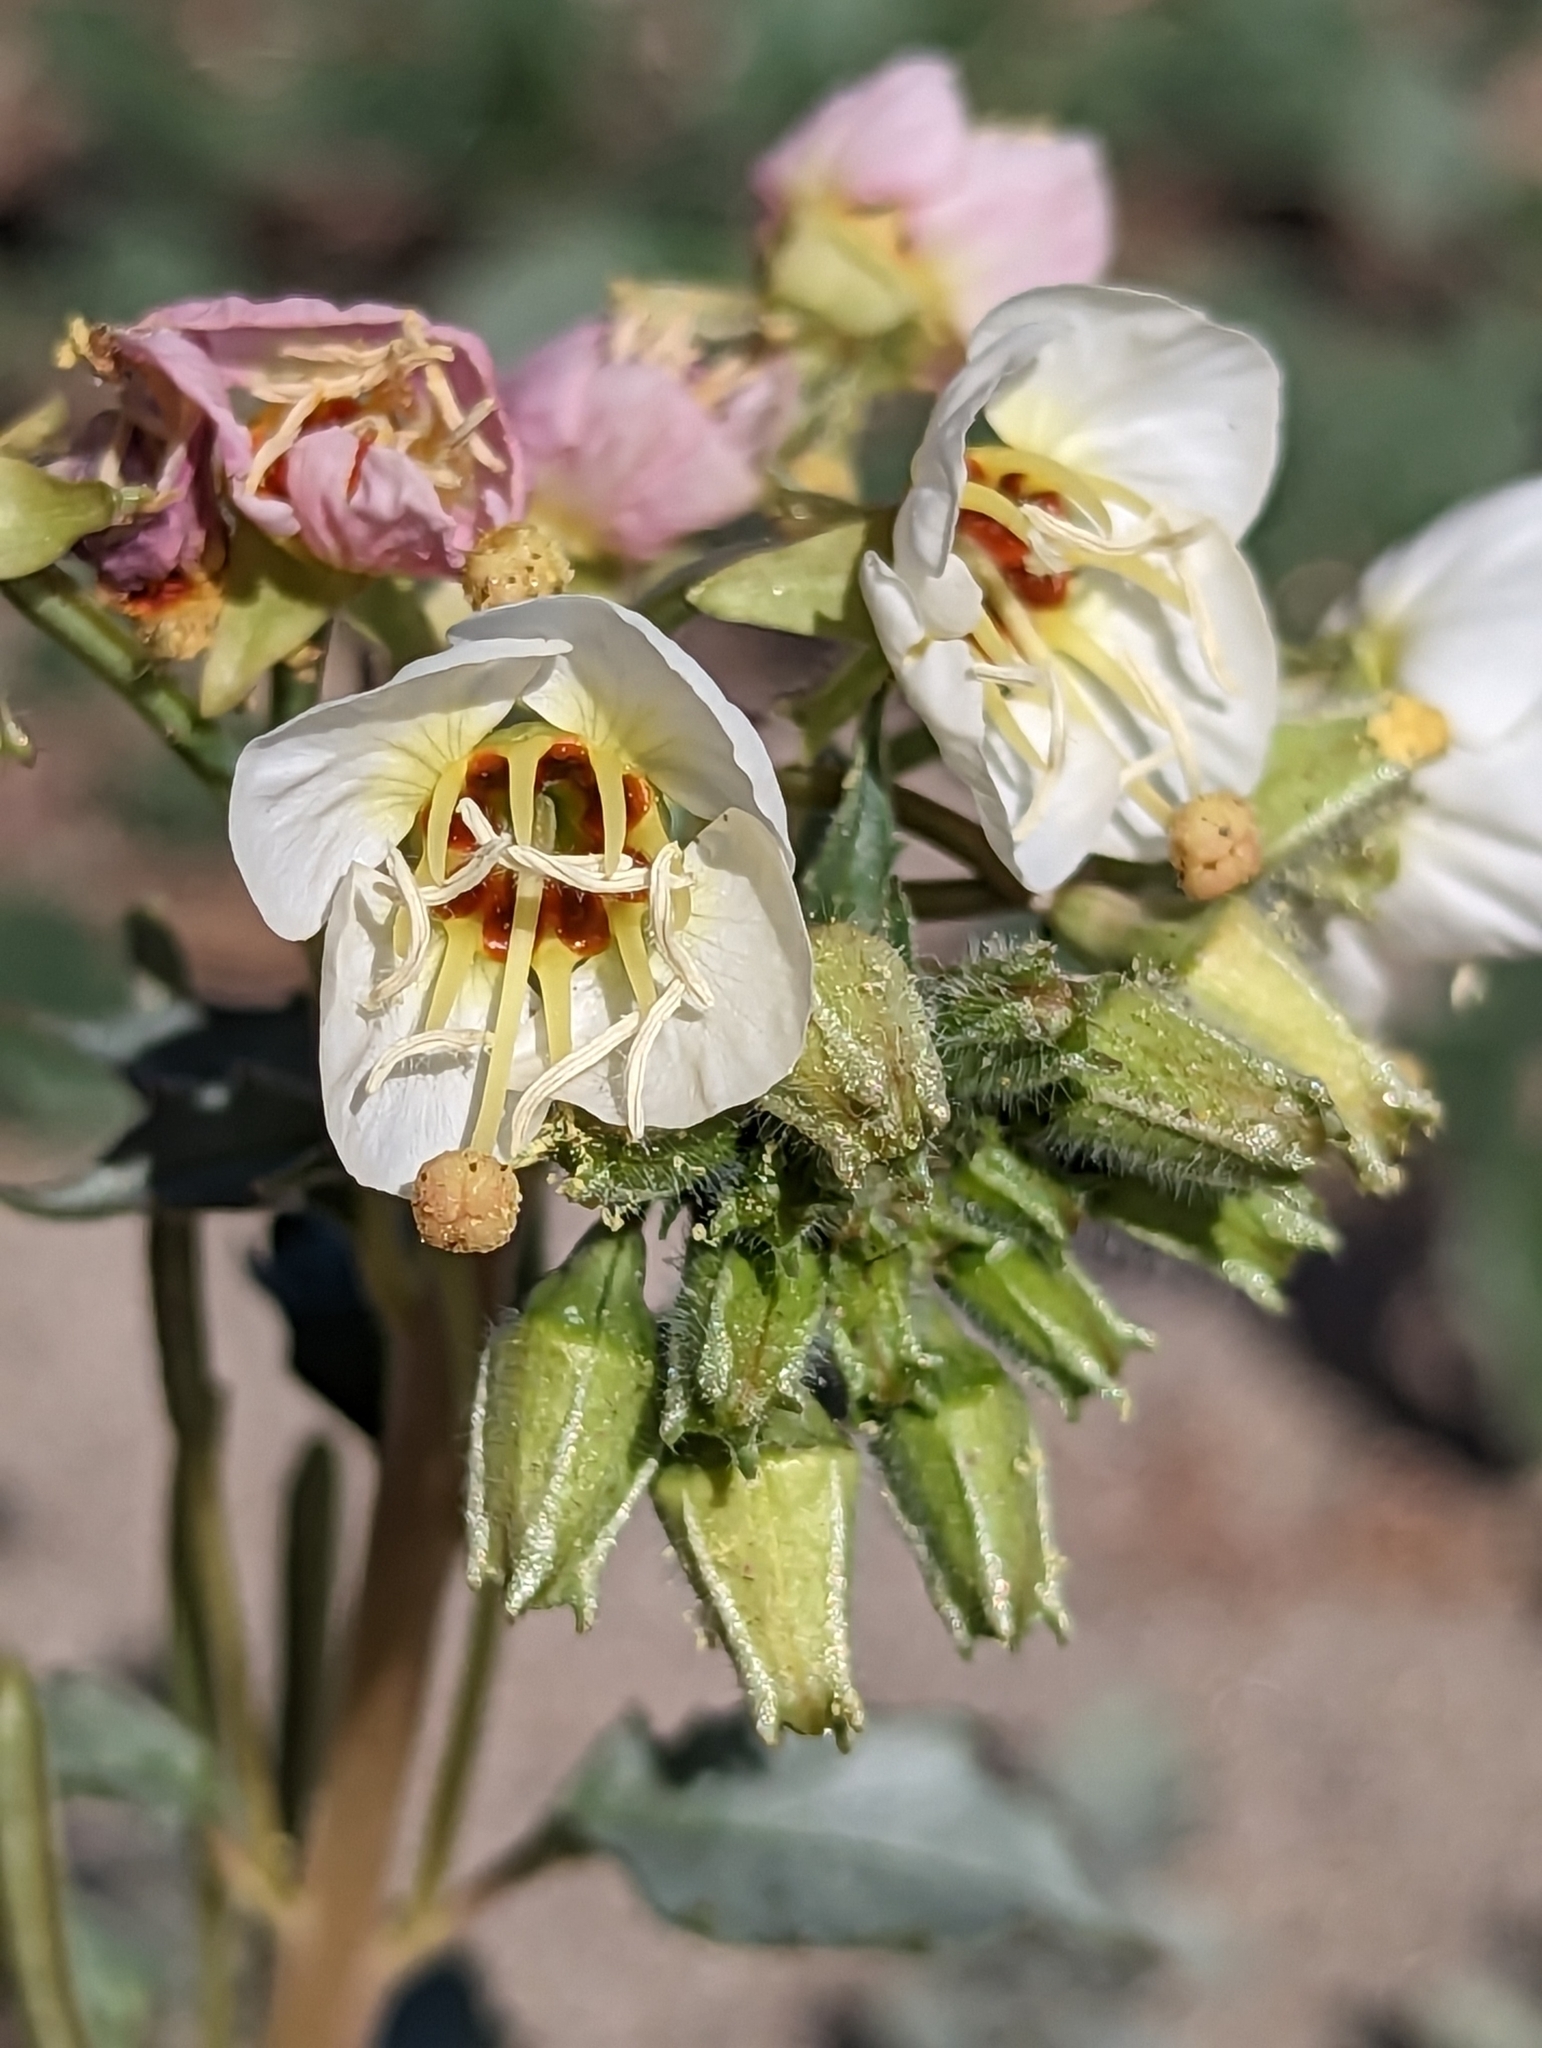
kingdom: Plantae
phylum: Tracheophyta
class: Magnoliopsida
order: Myrtales
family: Onagraceae
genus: Chylismia
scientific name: Chylismia claviformis
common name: Browneyes
